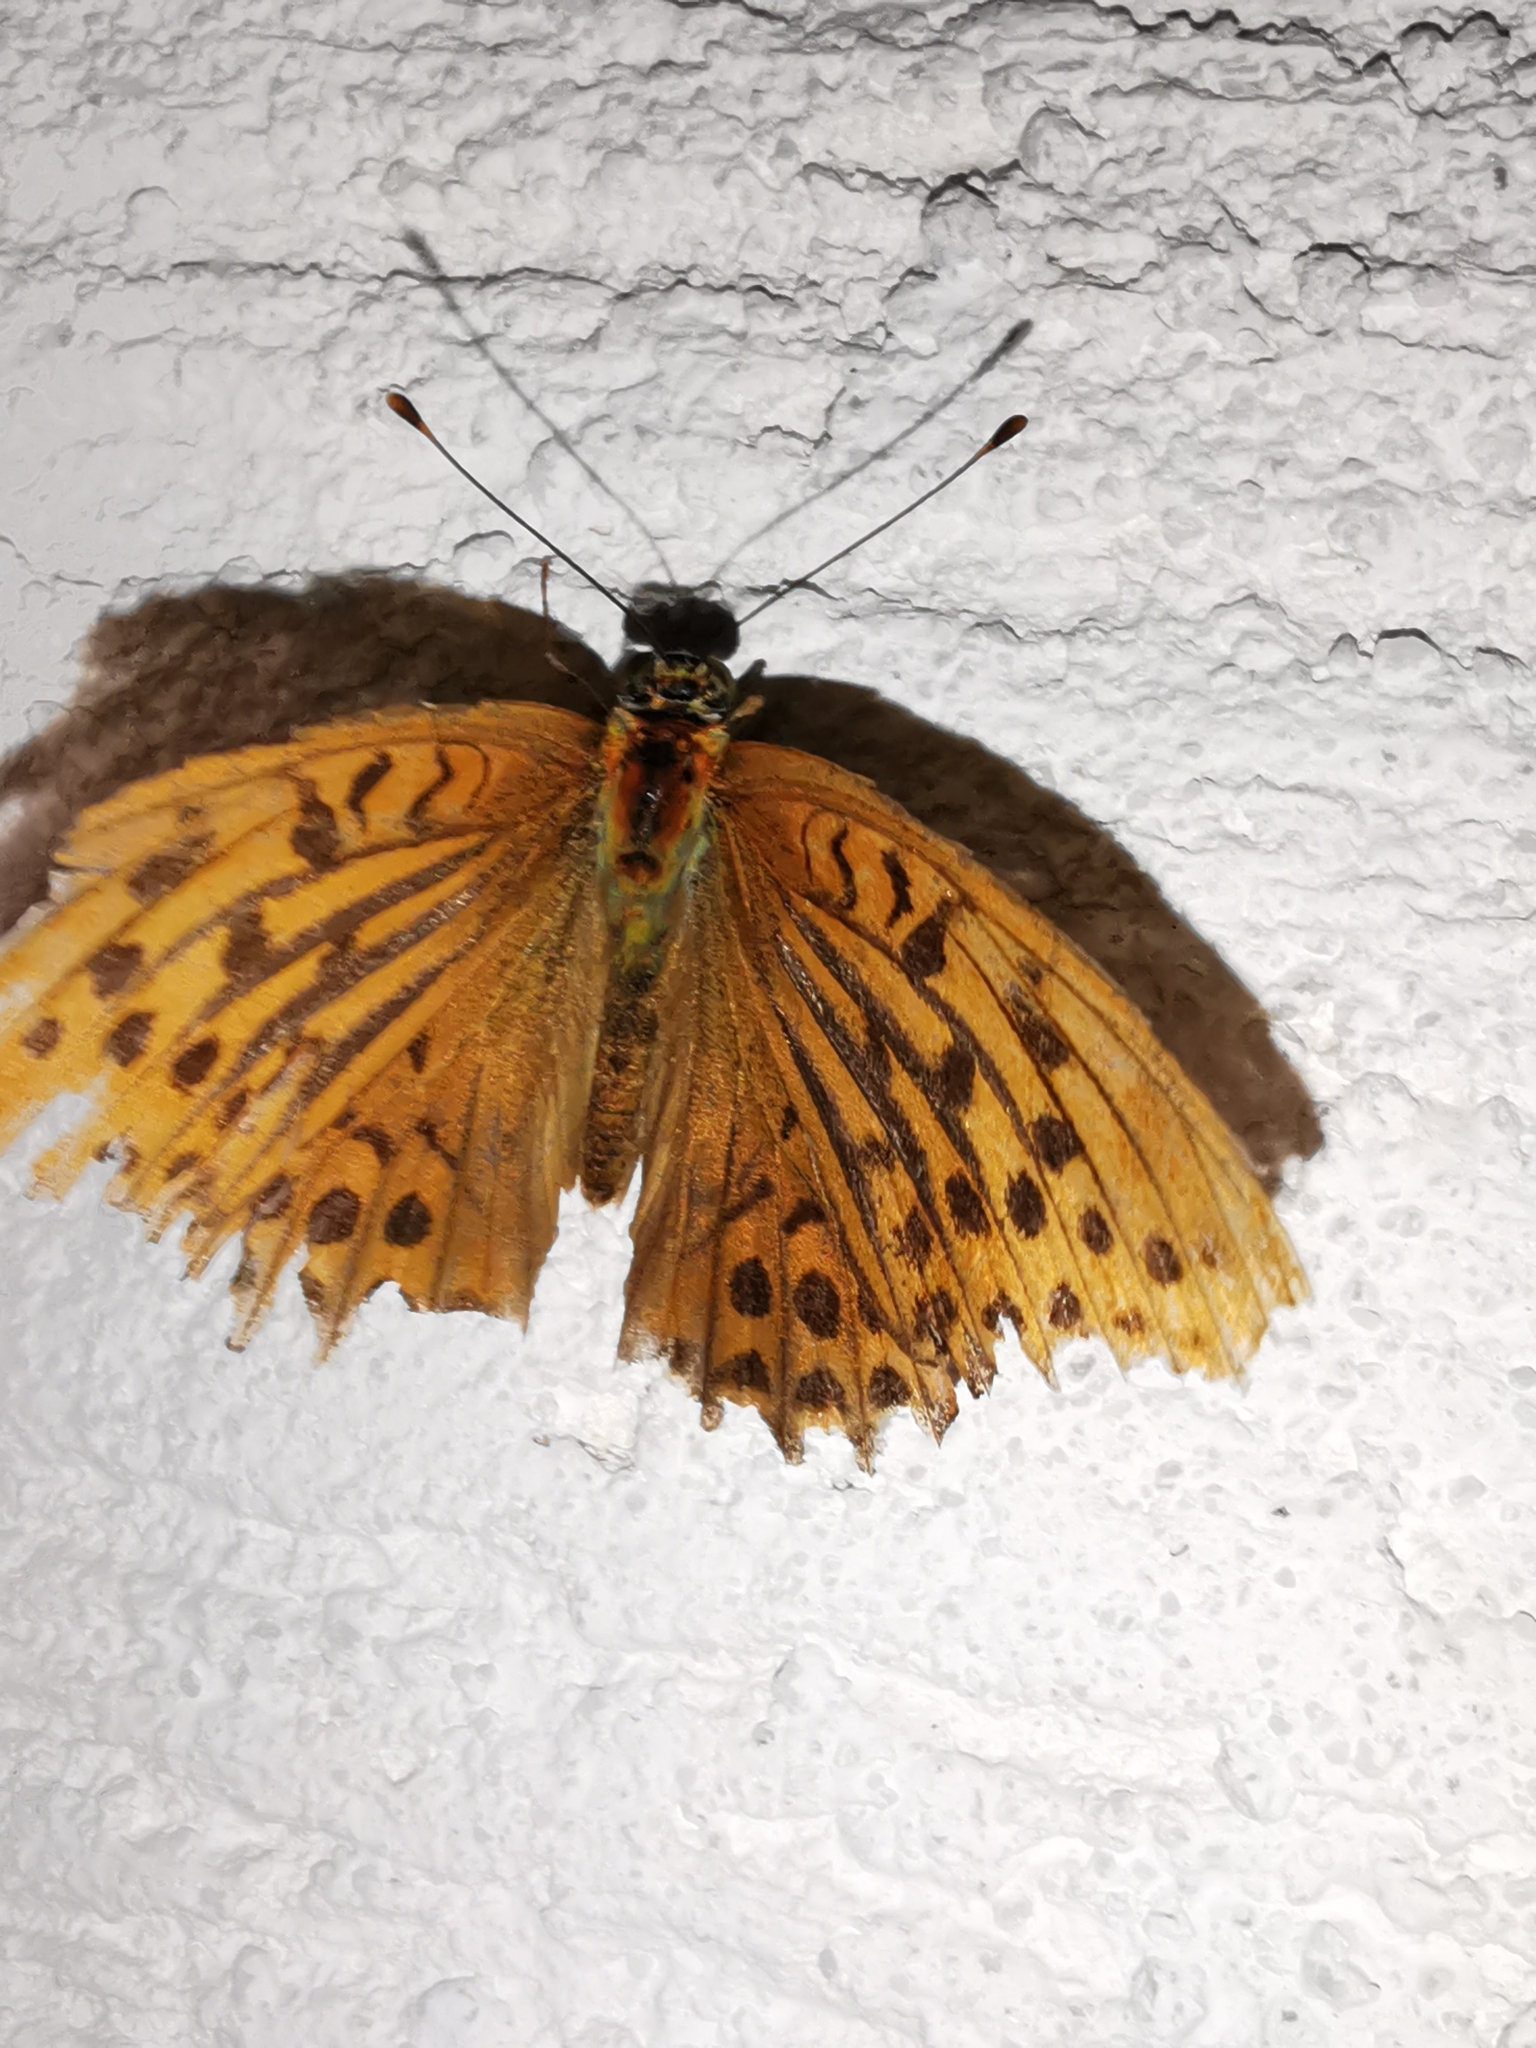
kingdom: Animalia
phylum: Arthropoda
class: Insecta
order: Lepidoptera
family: Nymphalidae
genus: Argynnis
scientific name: Argynnis paphia
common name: Silver-washed fritillary
